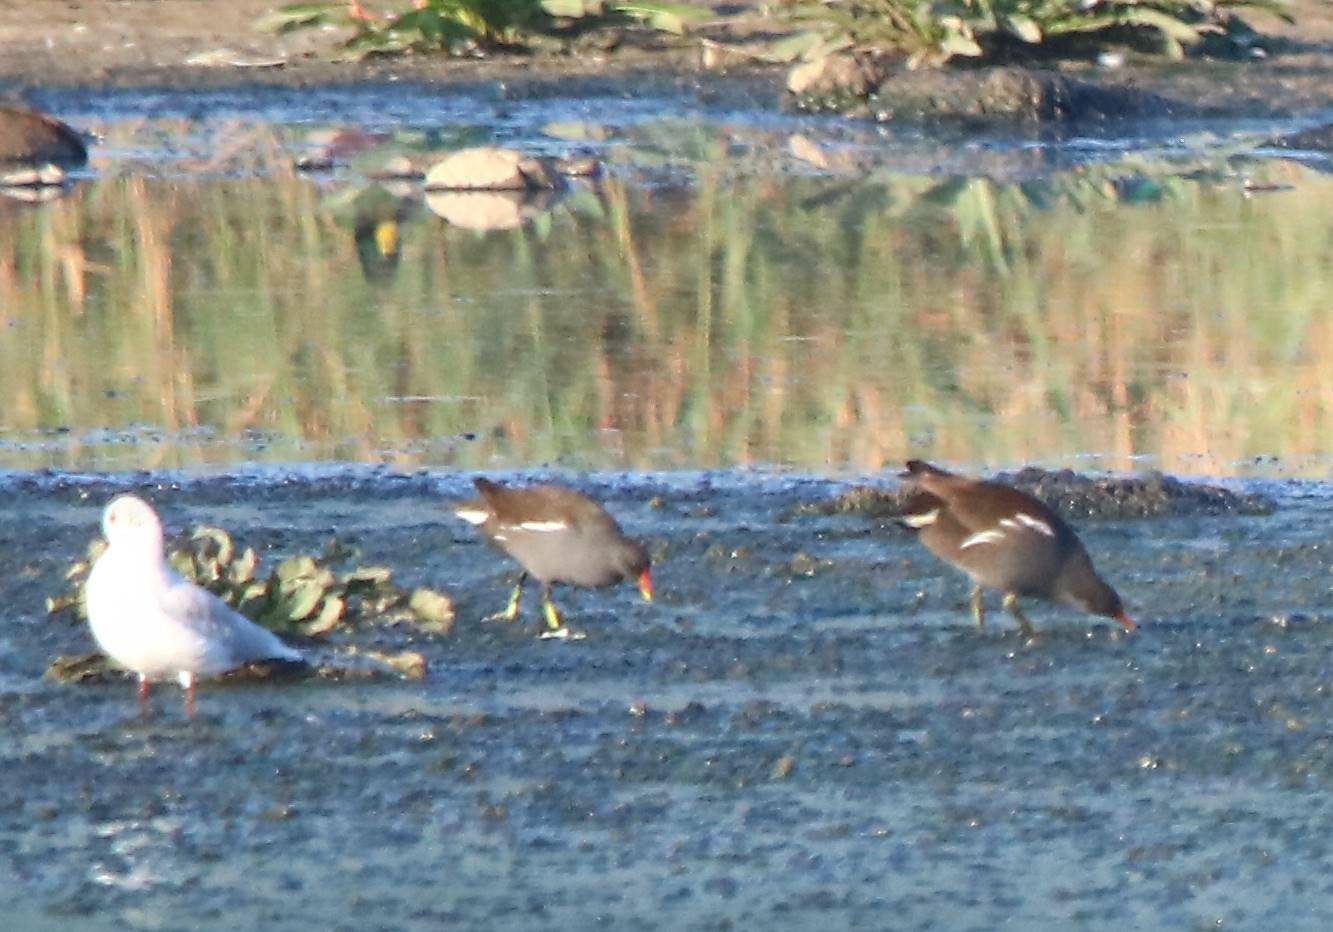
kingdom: Animalia
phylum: Chordata
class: Aves
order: Gruiformes
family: Rallidae
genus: Gallinula
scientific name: Gallinula chloropus
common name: Common moorhen
